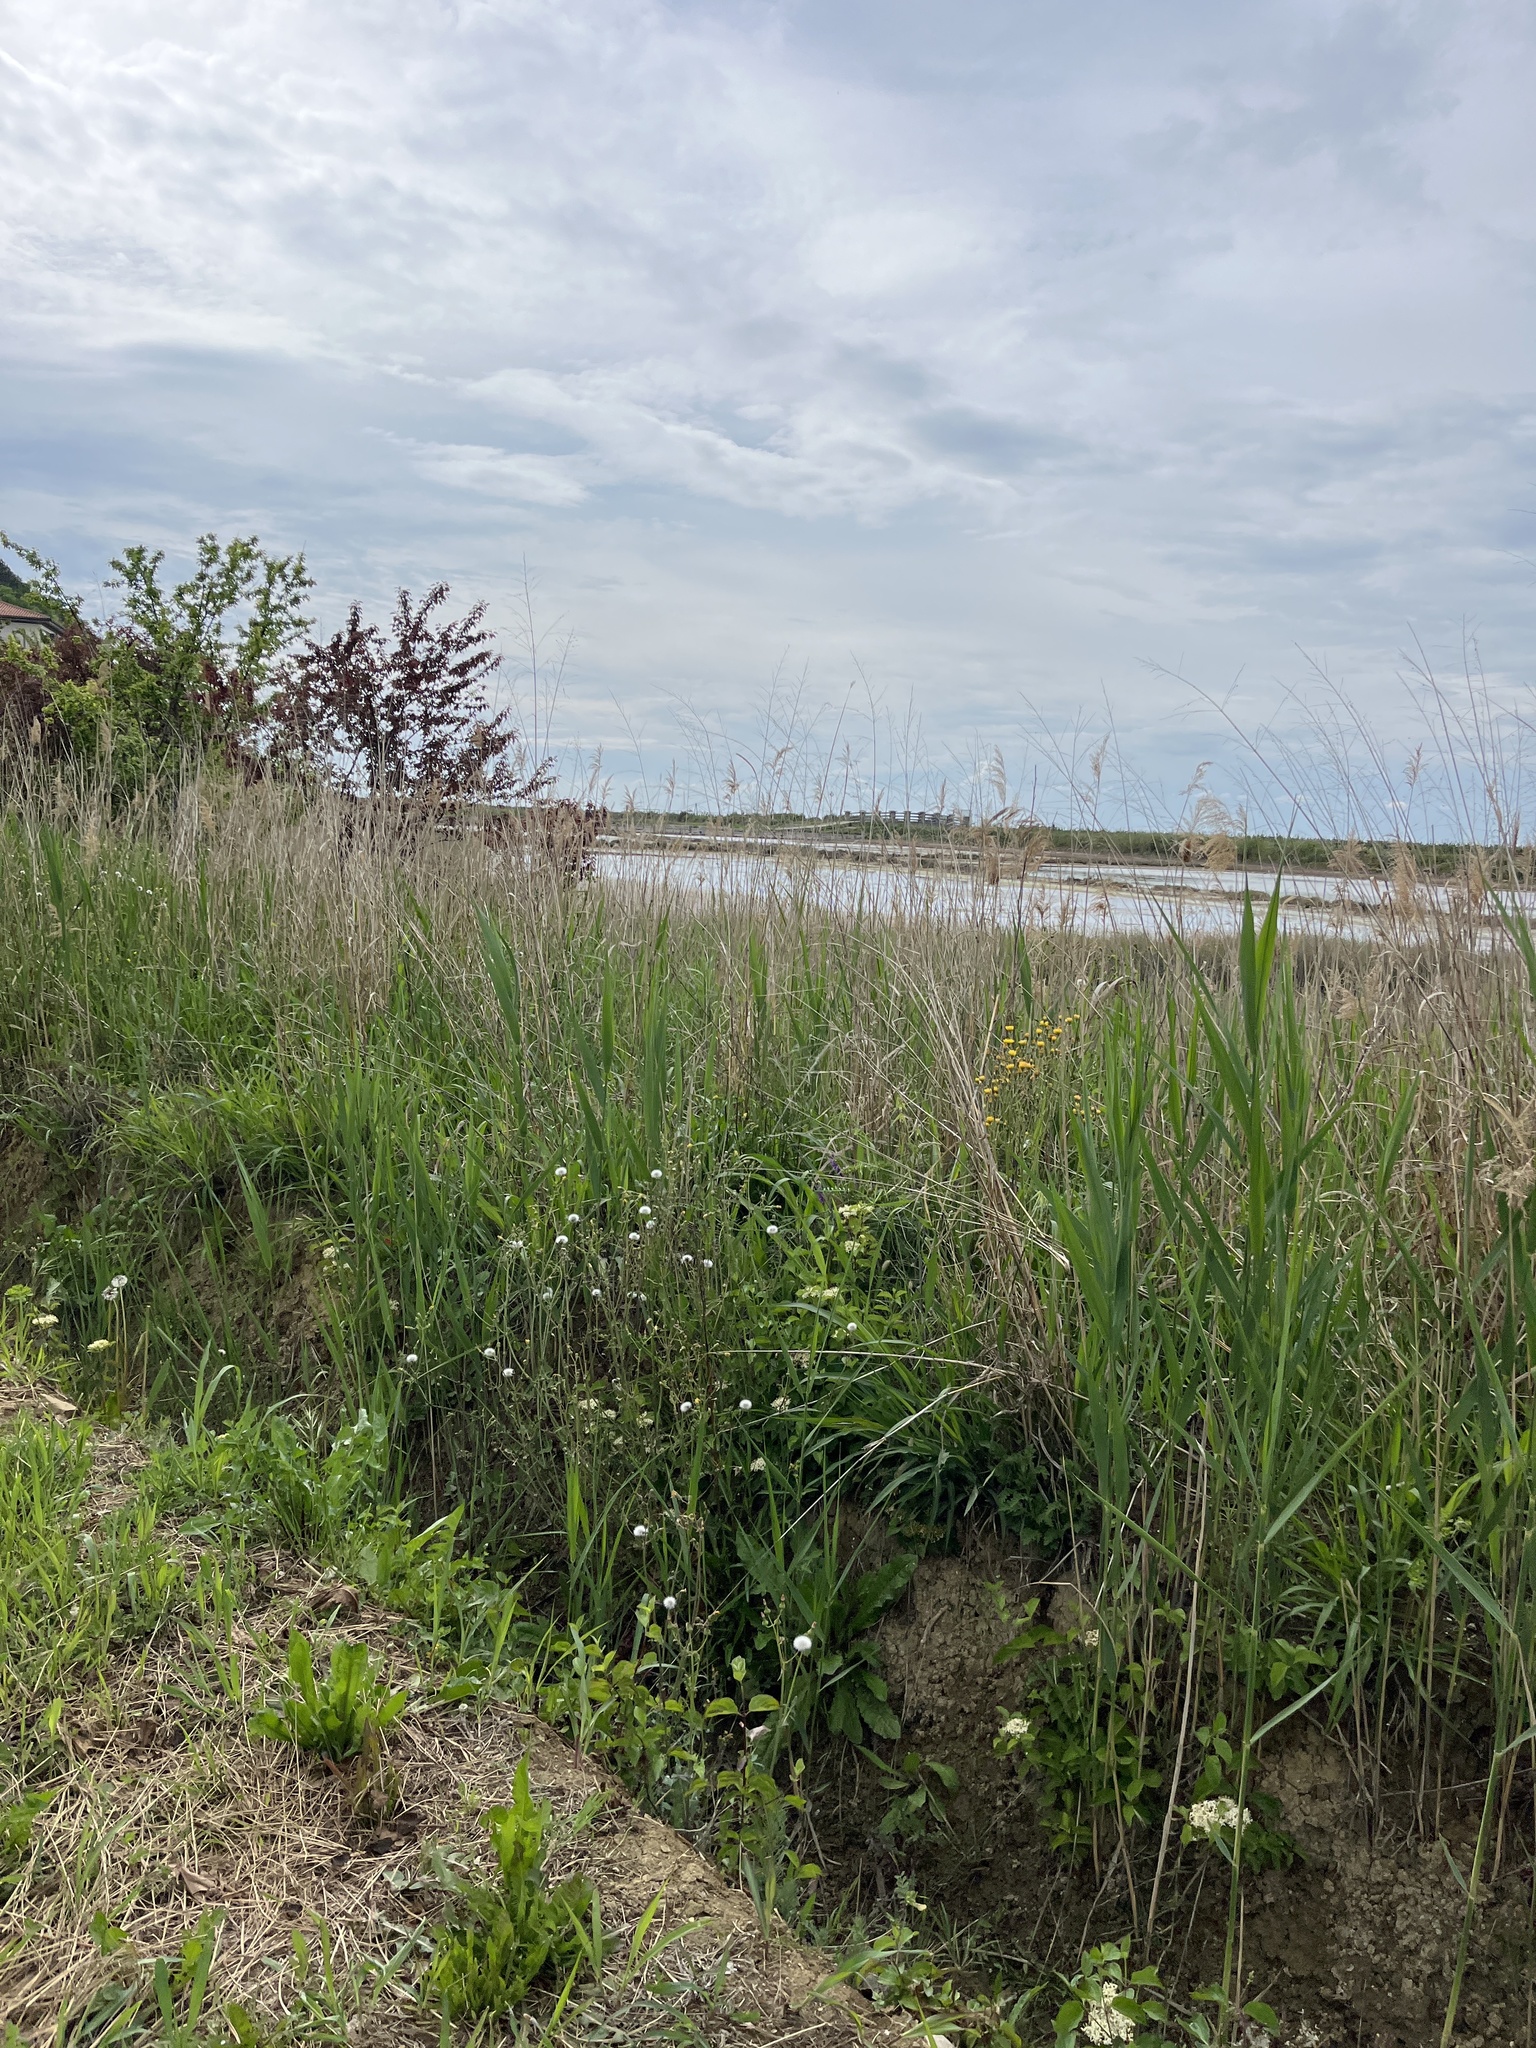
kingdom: Plantae
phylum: Tracheophyta
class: Liliopsida
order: Poales
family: Poaceae
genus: Phragmites
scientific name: Phragmites australis
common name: Common reed
